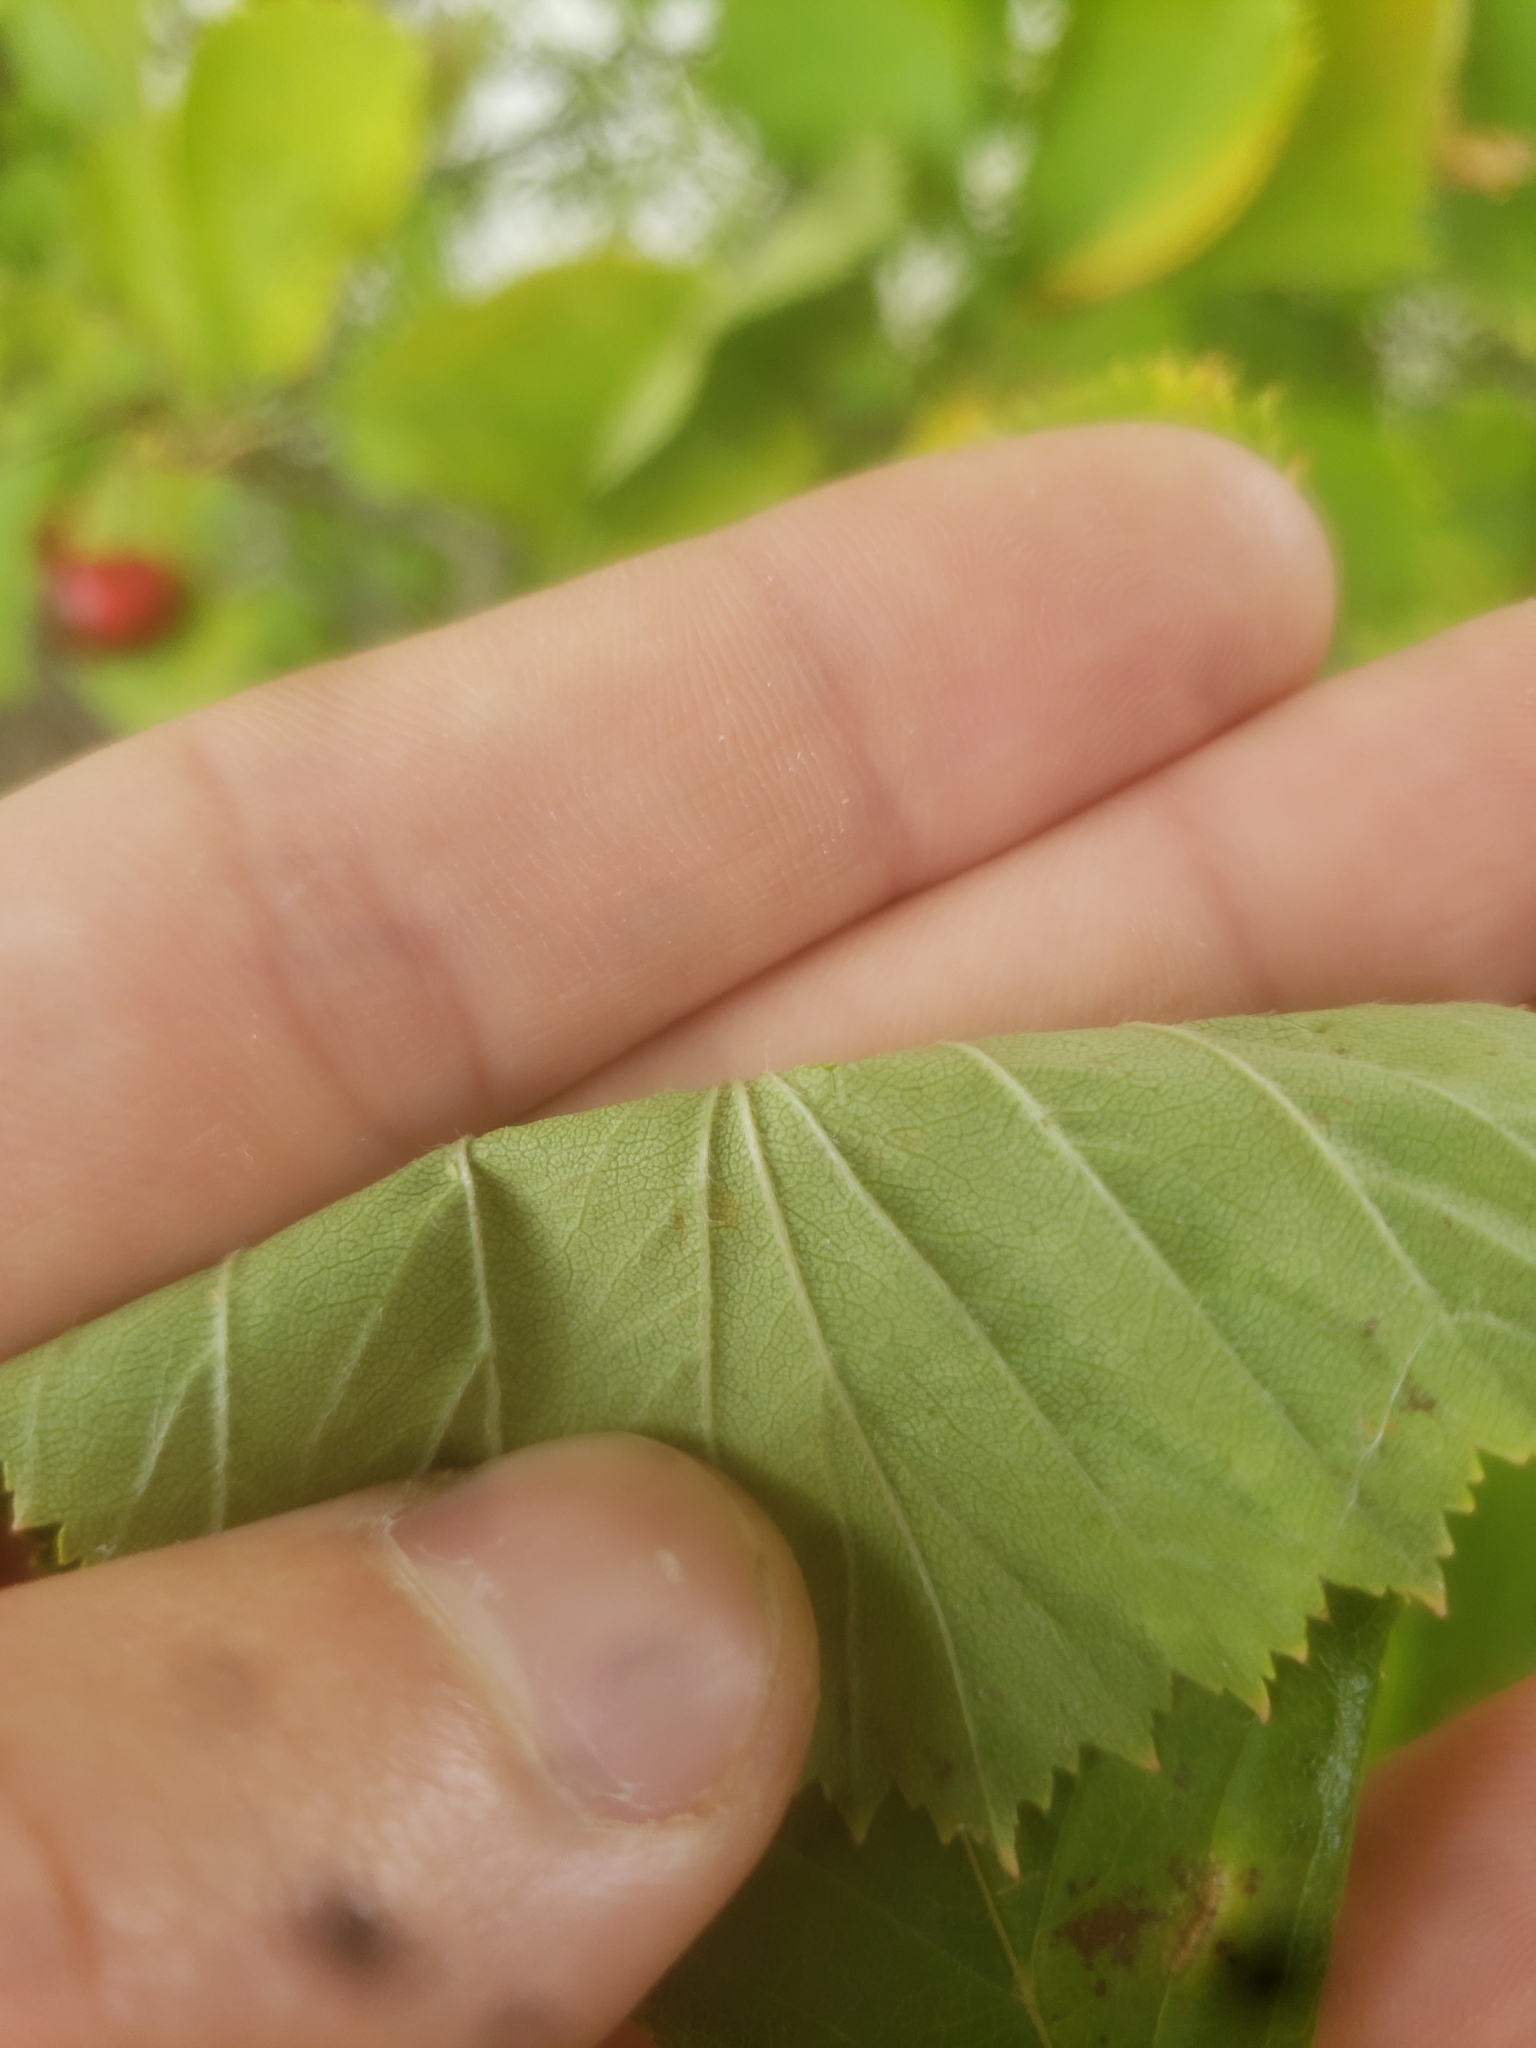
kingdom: Plantae
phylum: Tracheophyta
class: Magnoliopsida
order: Rosales
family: Rosaceae
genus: Crataegus
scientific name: Crataegus suborbiculata
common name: Caughnawaga hawthorn
